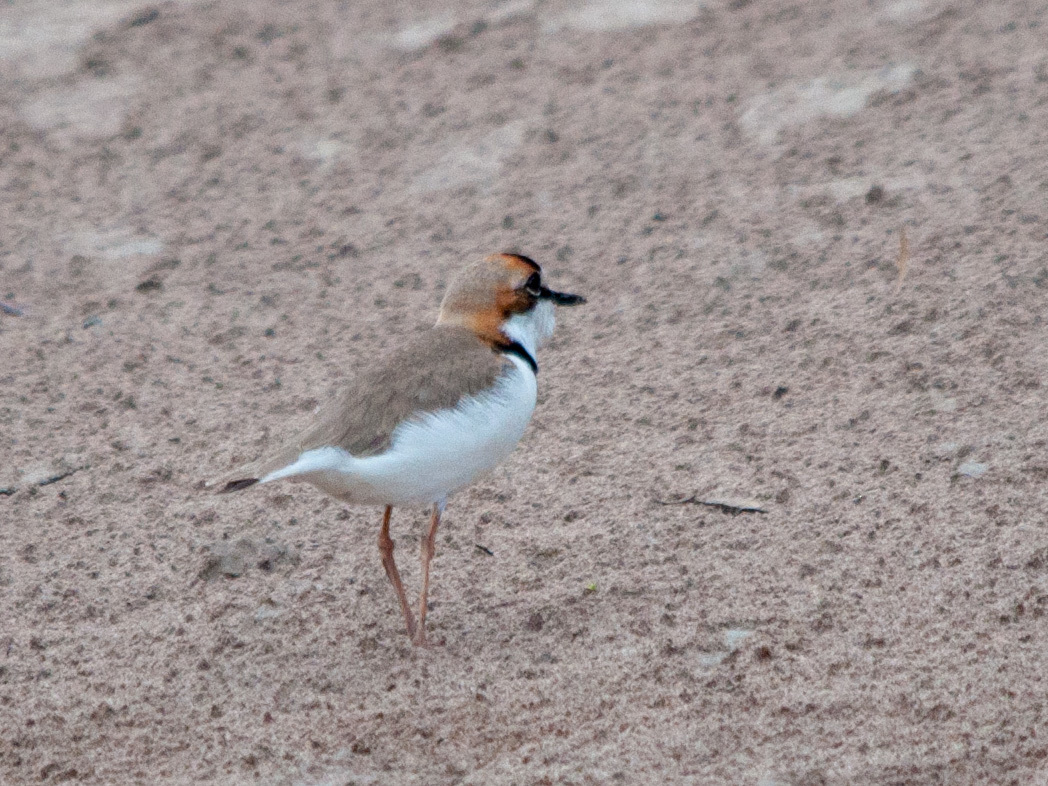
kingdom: Animalia
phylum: Chordata
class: Aves
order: Charadriiformes
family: Charadriidae
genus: Anarhynchus
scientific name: Anarhynchus
